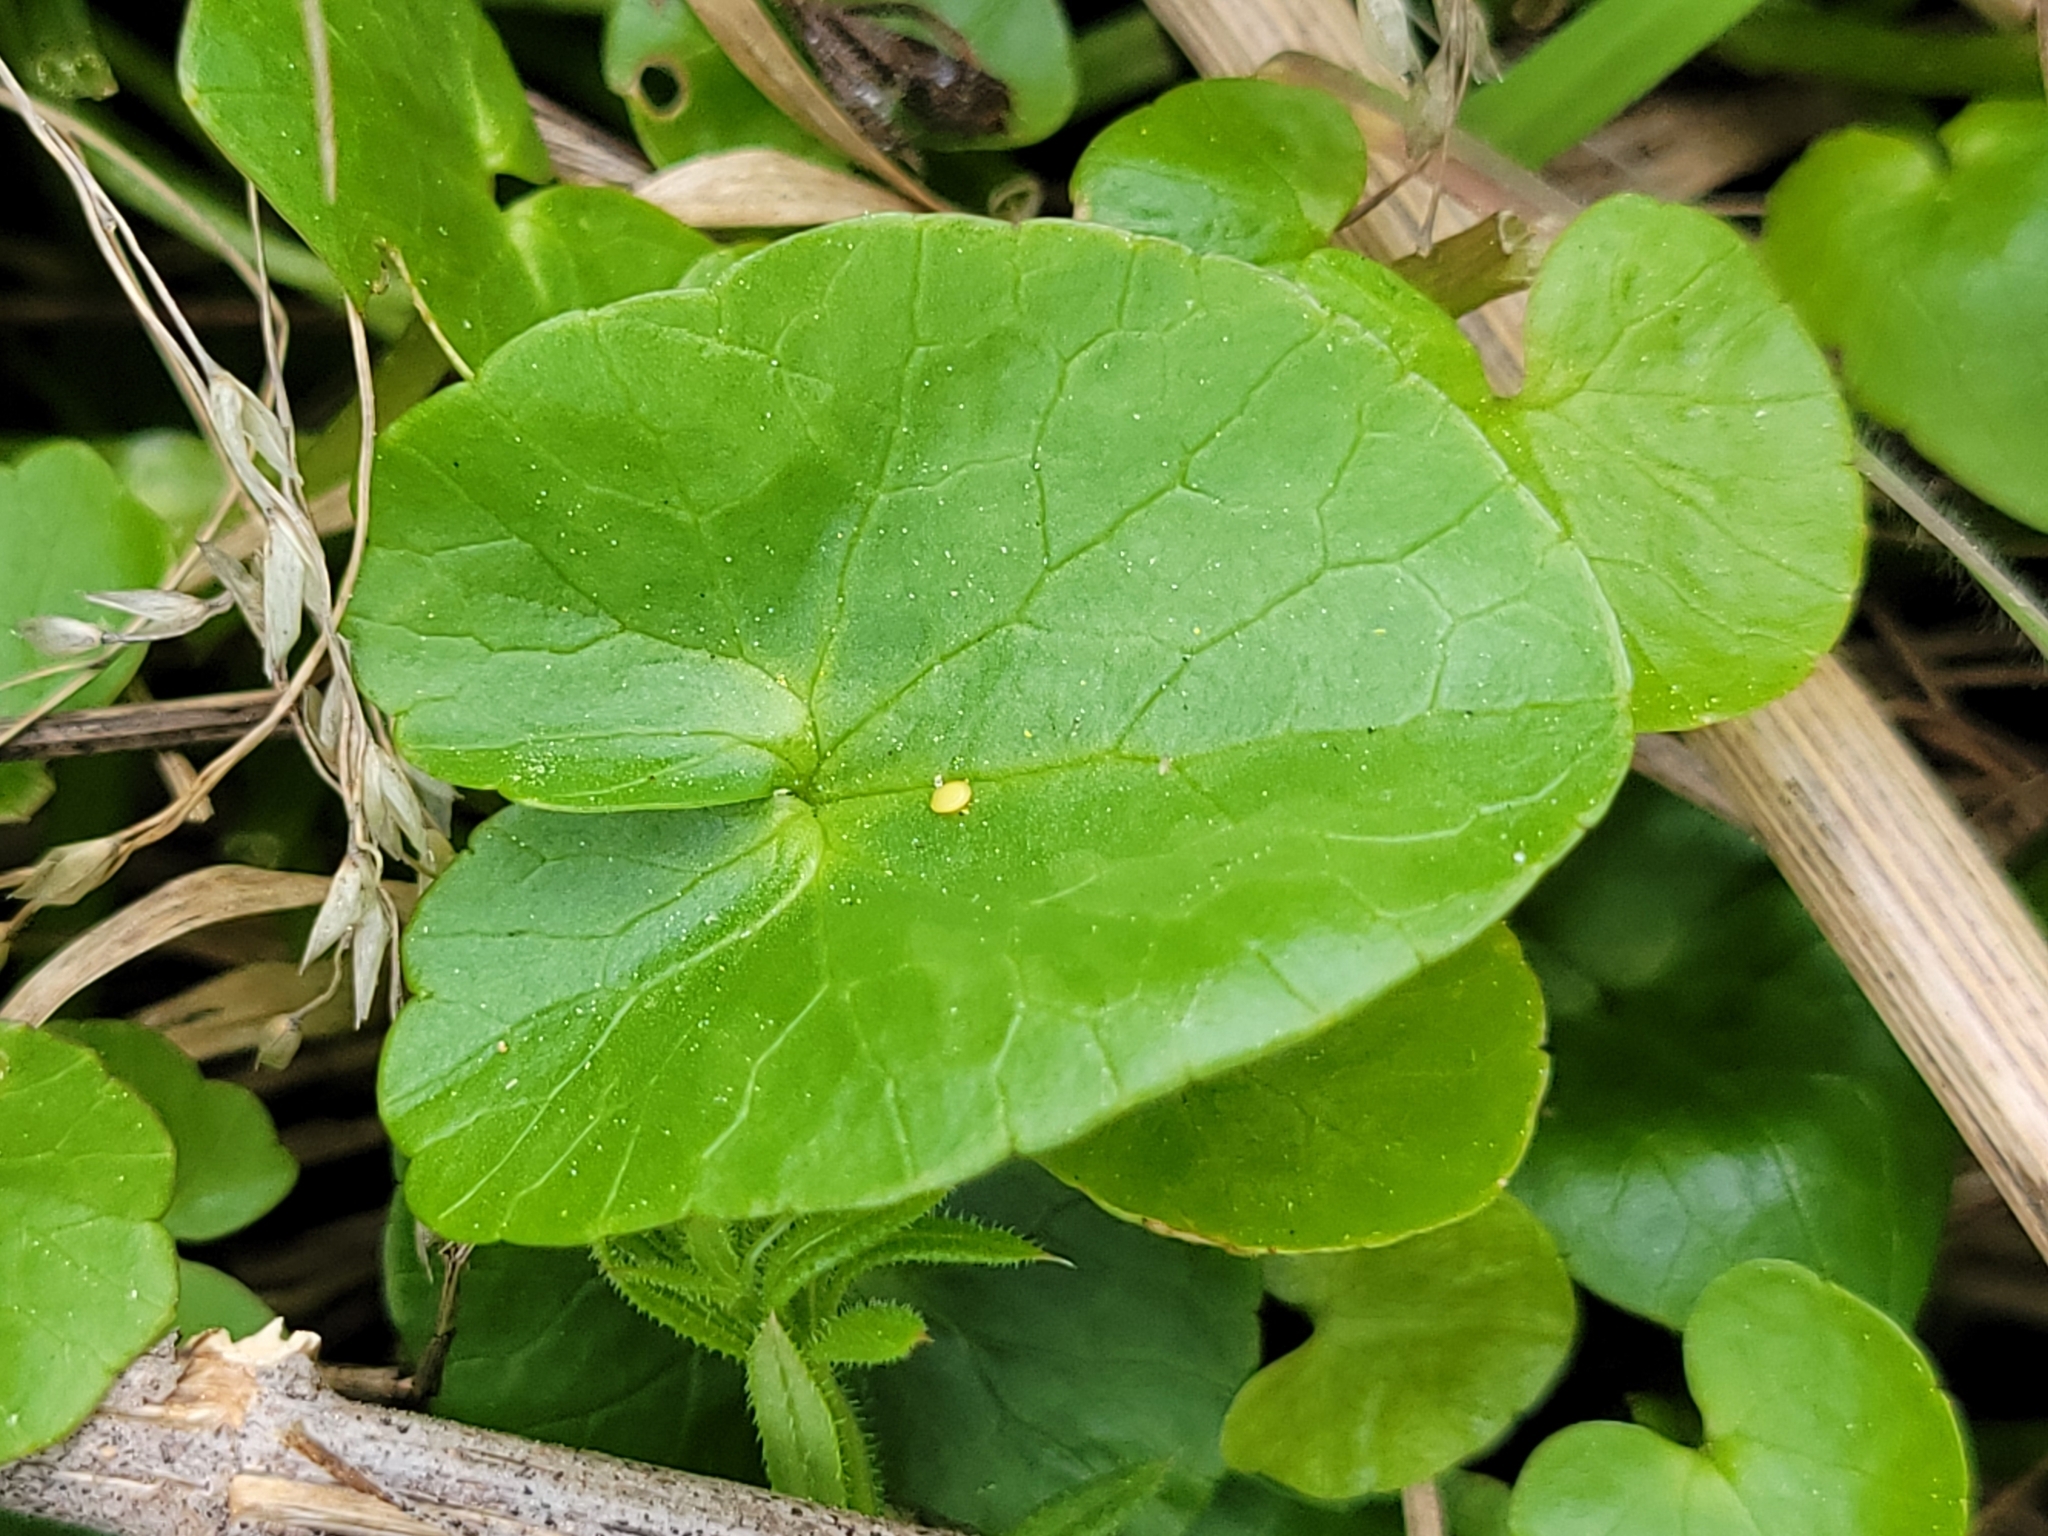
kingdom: Plantae
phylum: Tracheophyta
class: Magnoliopsida
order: Ranunculales
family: Ranunculaceae
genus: Ficaria
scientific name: Ficaria verna
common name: Lesser celandine
